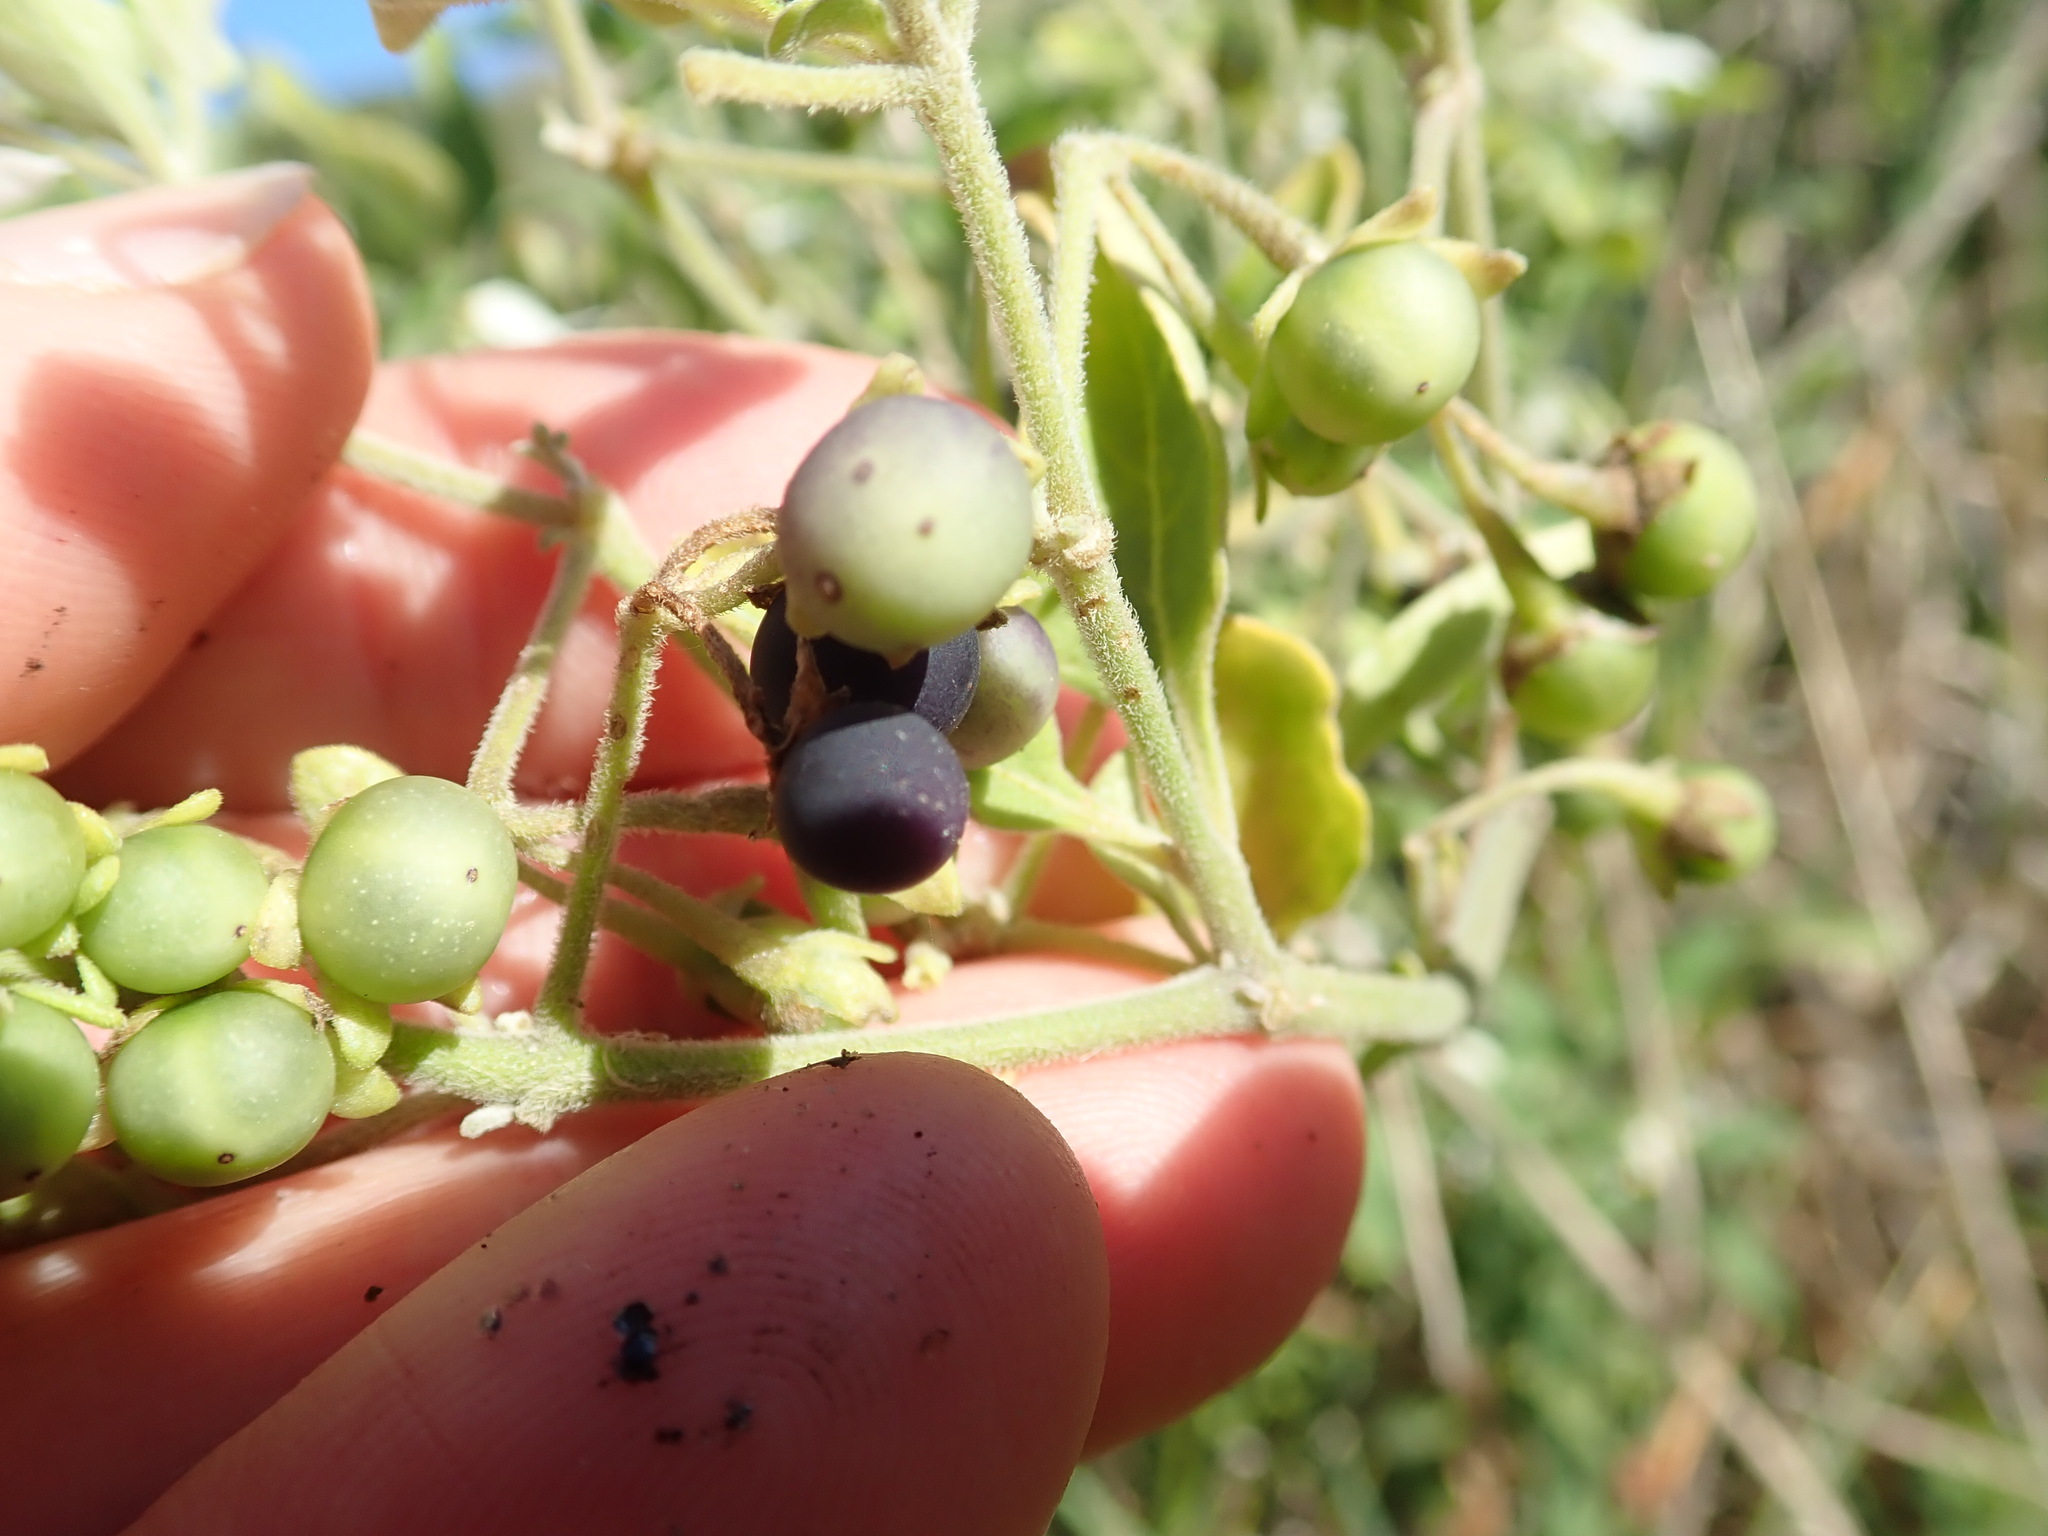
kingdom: Plantae
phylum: Tracheophyta
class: Magnoliopsida
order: Solanales
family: Solanaceae
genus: Solanum
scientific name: Solanum chenopodioides
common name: Tall nightshade
